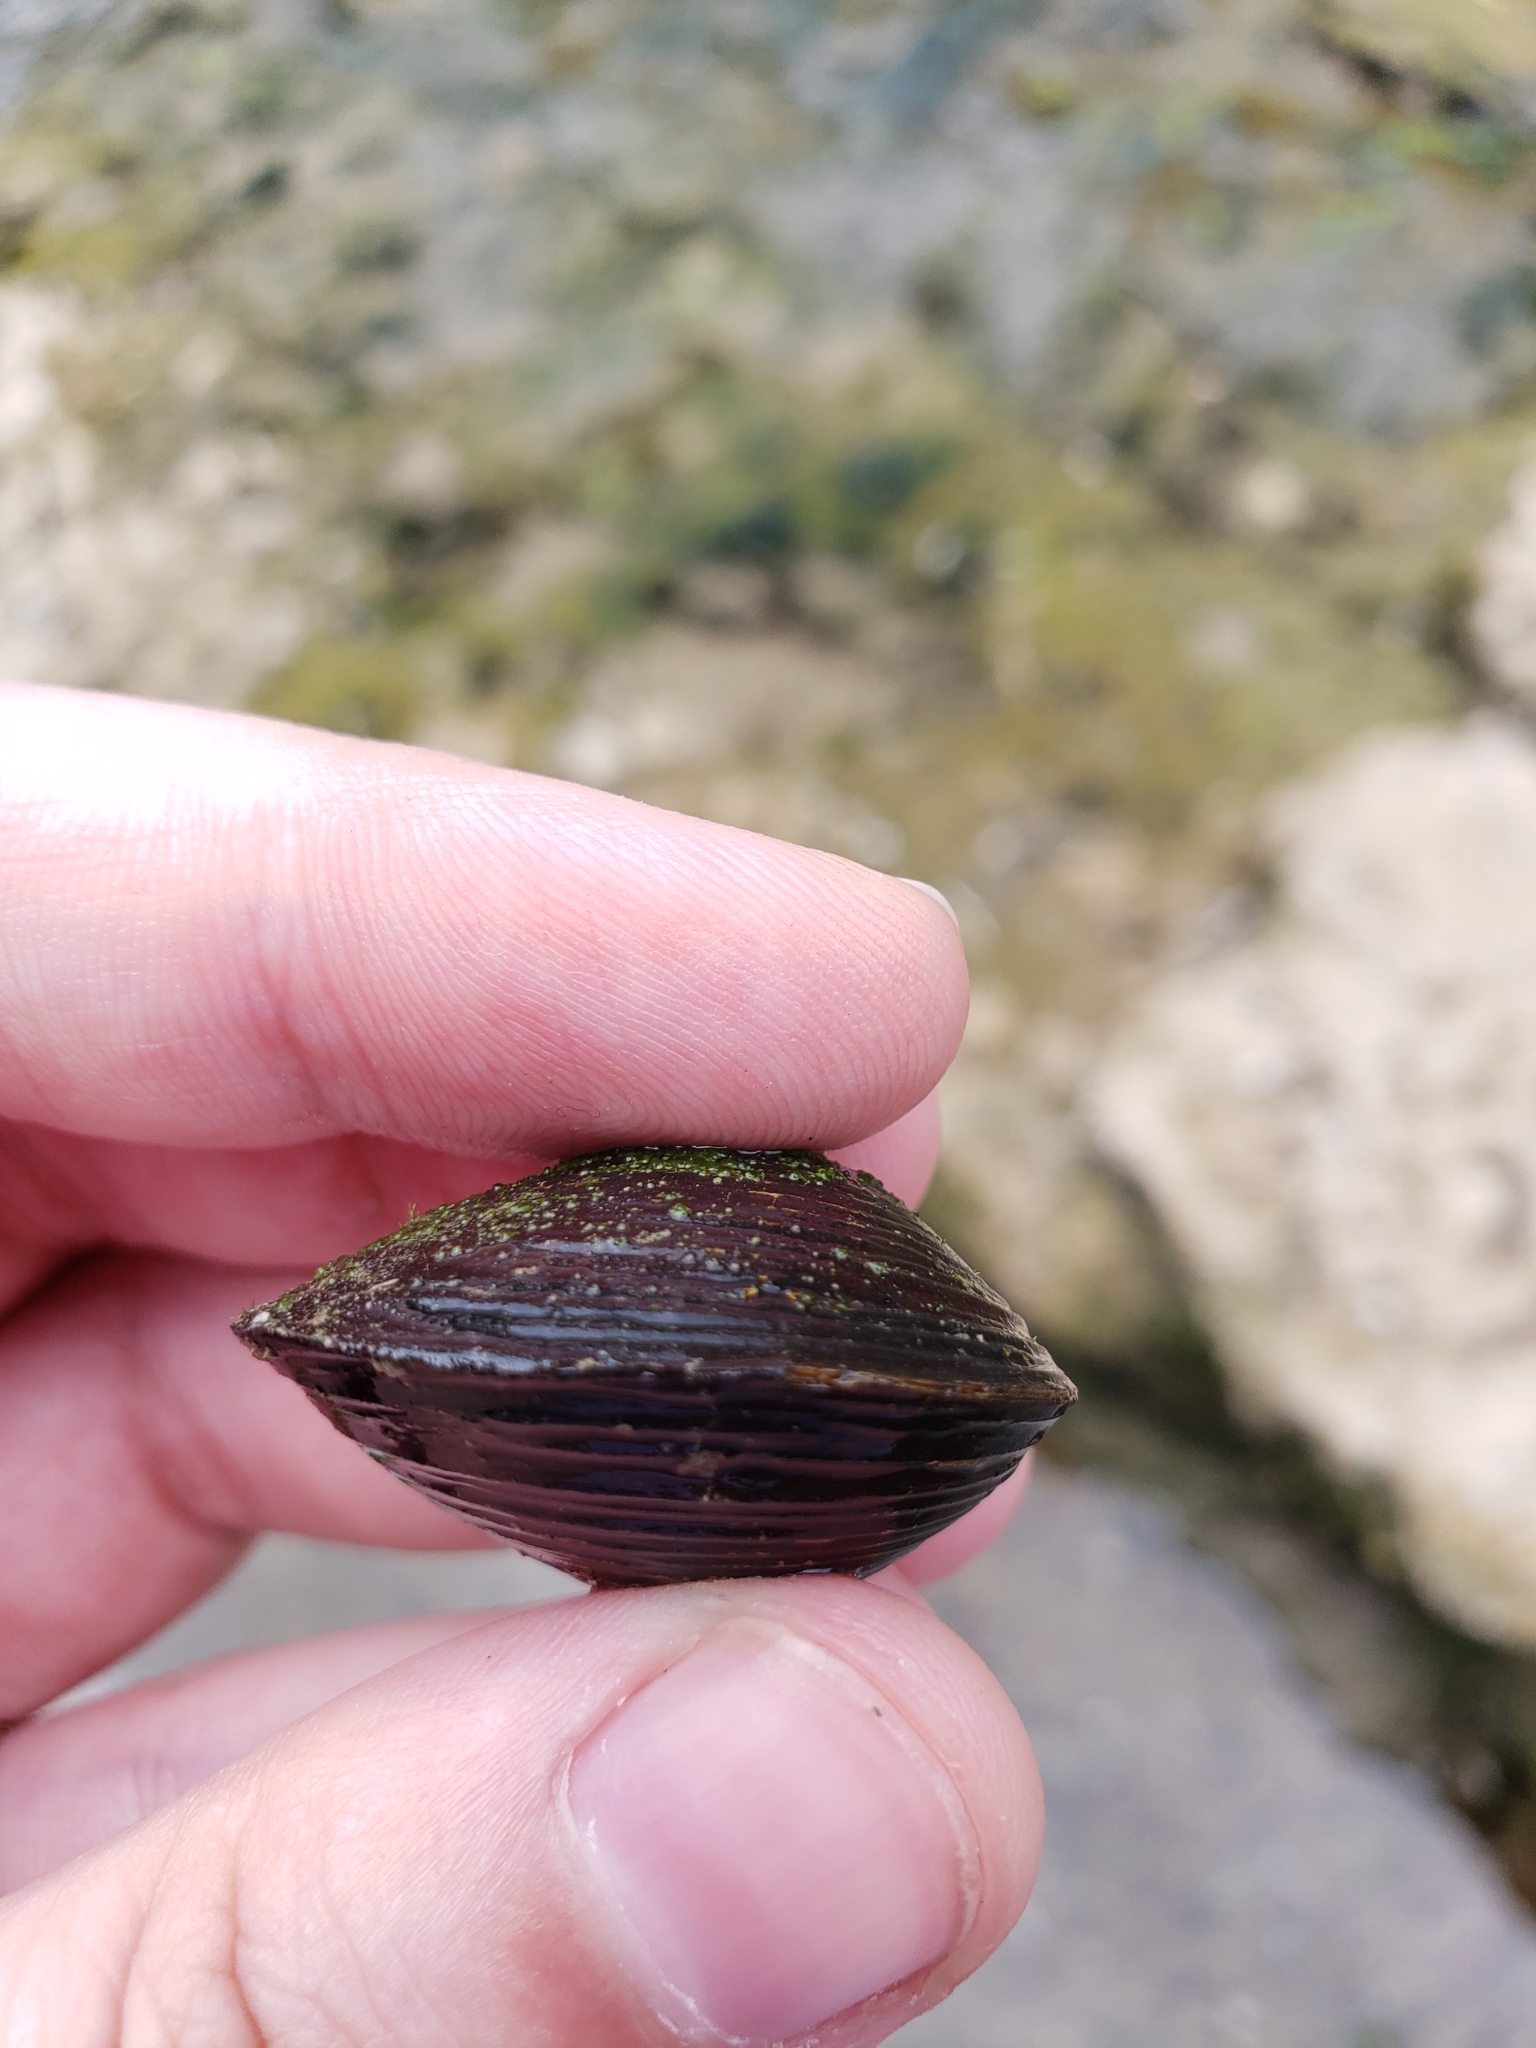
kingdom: Animalia
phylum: Mollusca
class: Bivalvia
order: Venerida
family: Cyrenidae
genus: Corbicula
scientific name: Corbicula fluminea
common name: Asian clam
